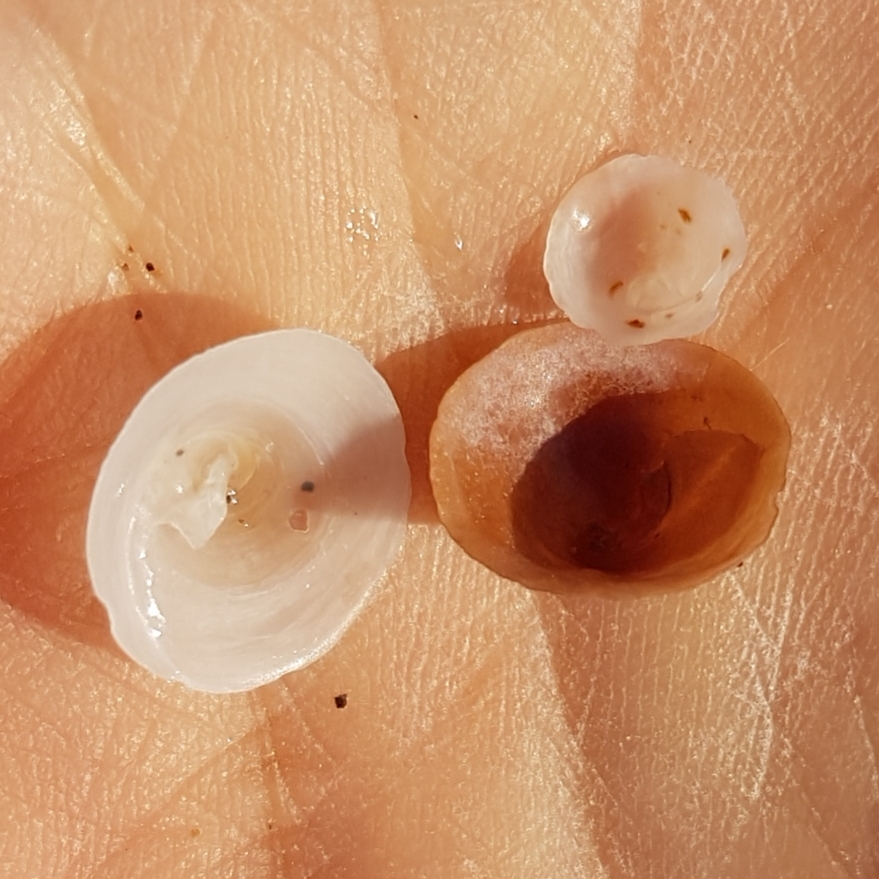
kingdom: Animalia
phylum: Mollusca
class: Gastropoda
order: Littorinimorpha
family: Calyptraeidae
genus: Calyptraea
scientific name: Calyptraea chinensis
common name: Chinaman's hat
